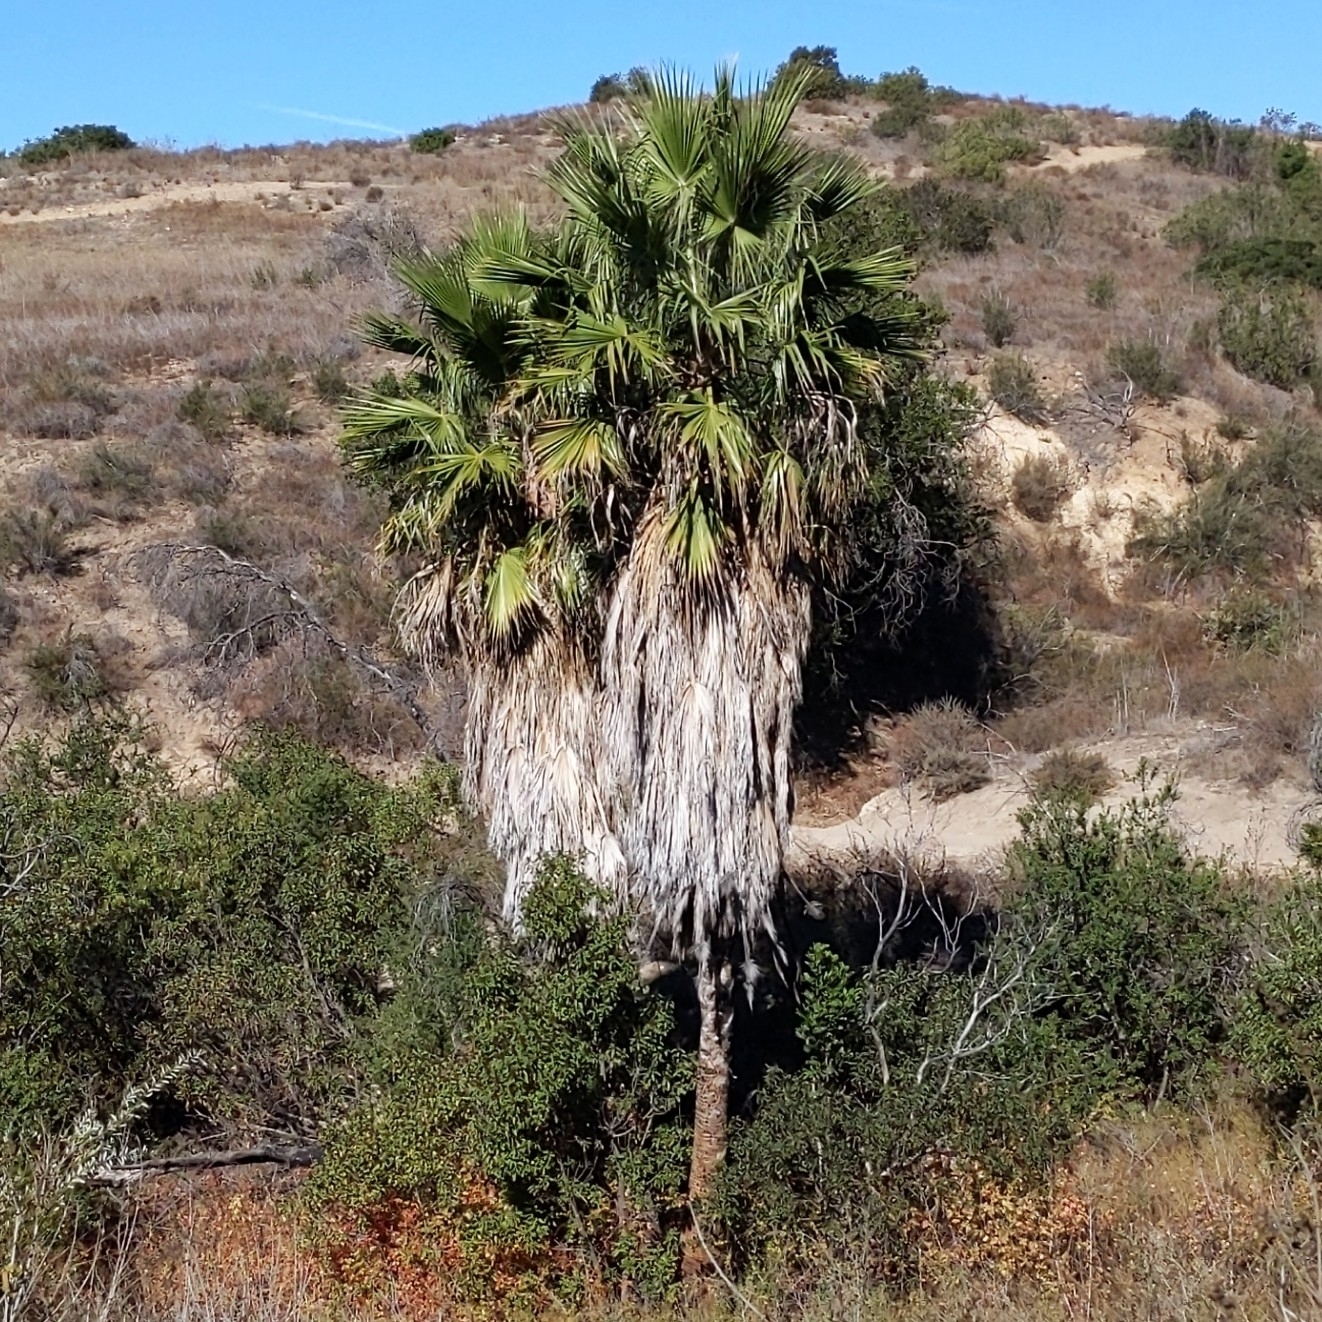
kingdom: Plantae
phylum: Tracheophyta
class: Liliopsida
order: Arecales
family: Arecaceae
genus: Washingtonia
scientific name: Washingtonia robusta
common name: Mexican fan palm
